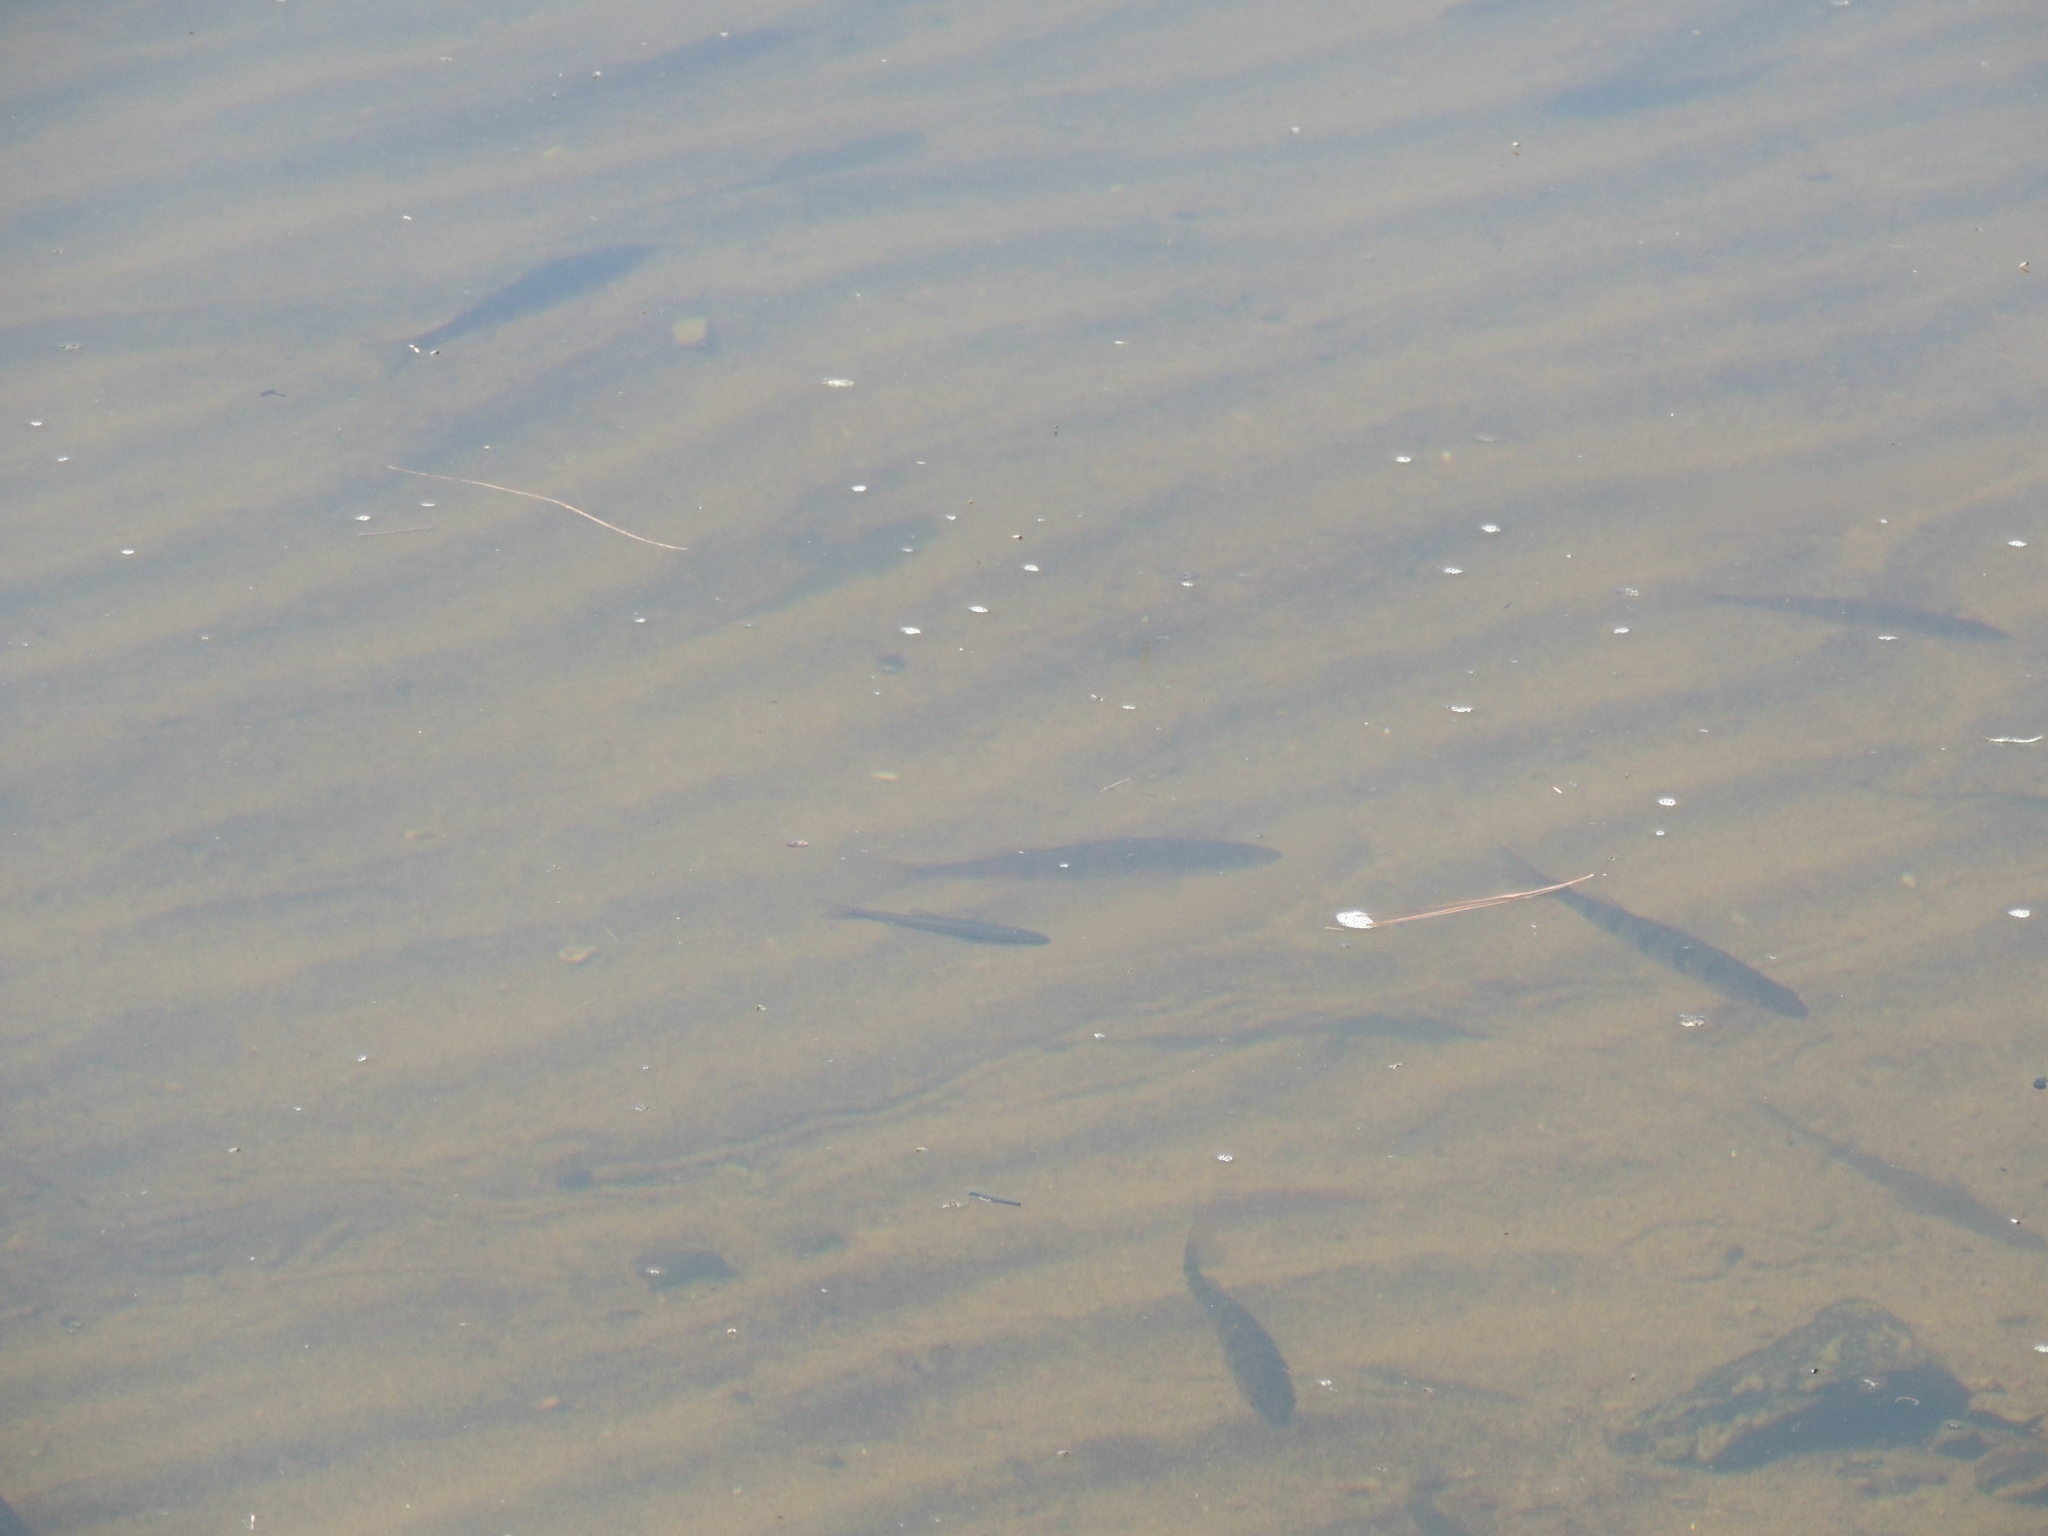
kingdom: Animalia
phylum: Chordata
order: Perciformes
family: Percidae
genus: Perca
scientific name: Perca flavescens
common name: Yellow perch
